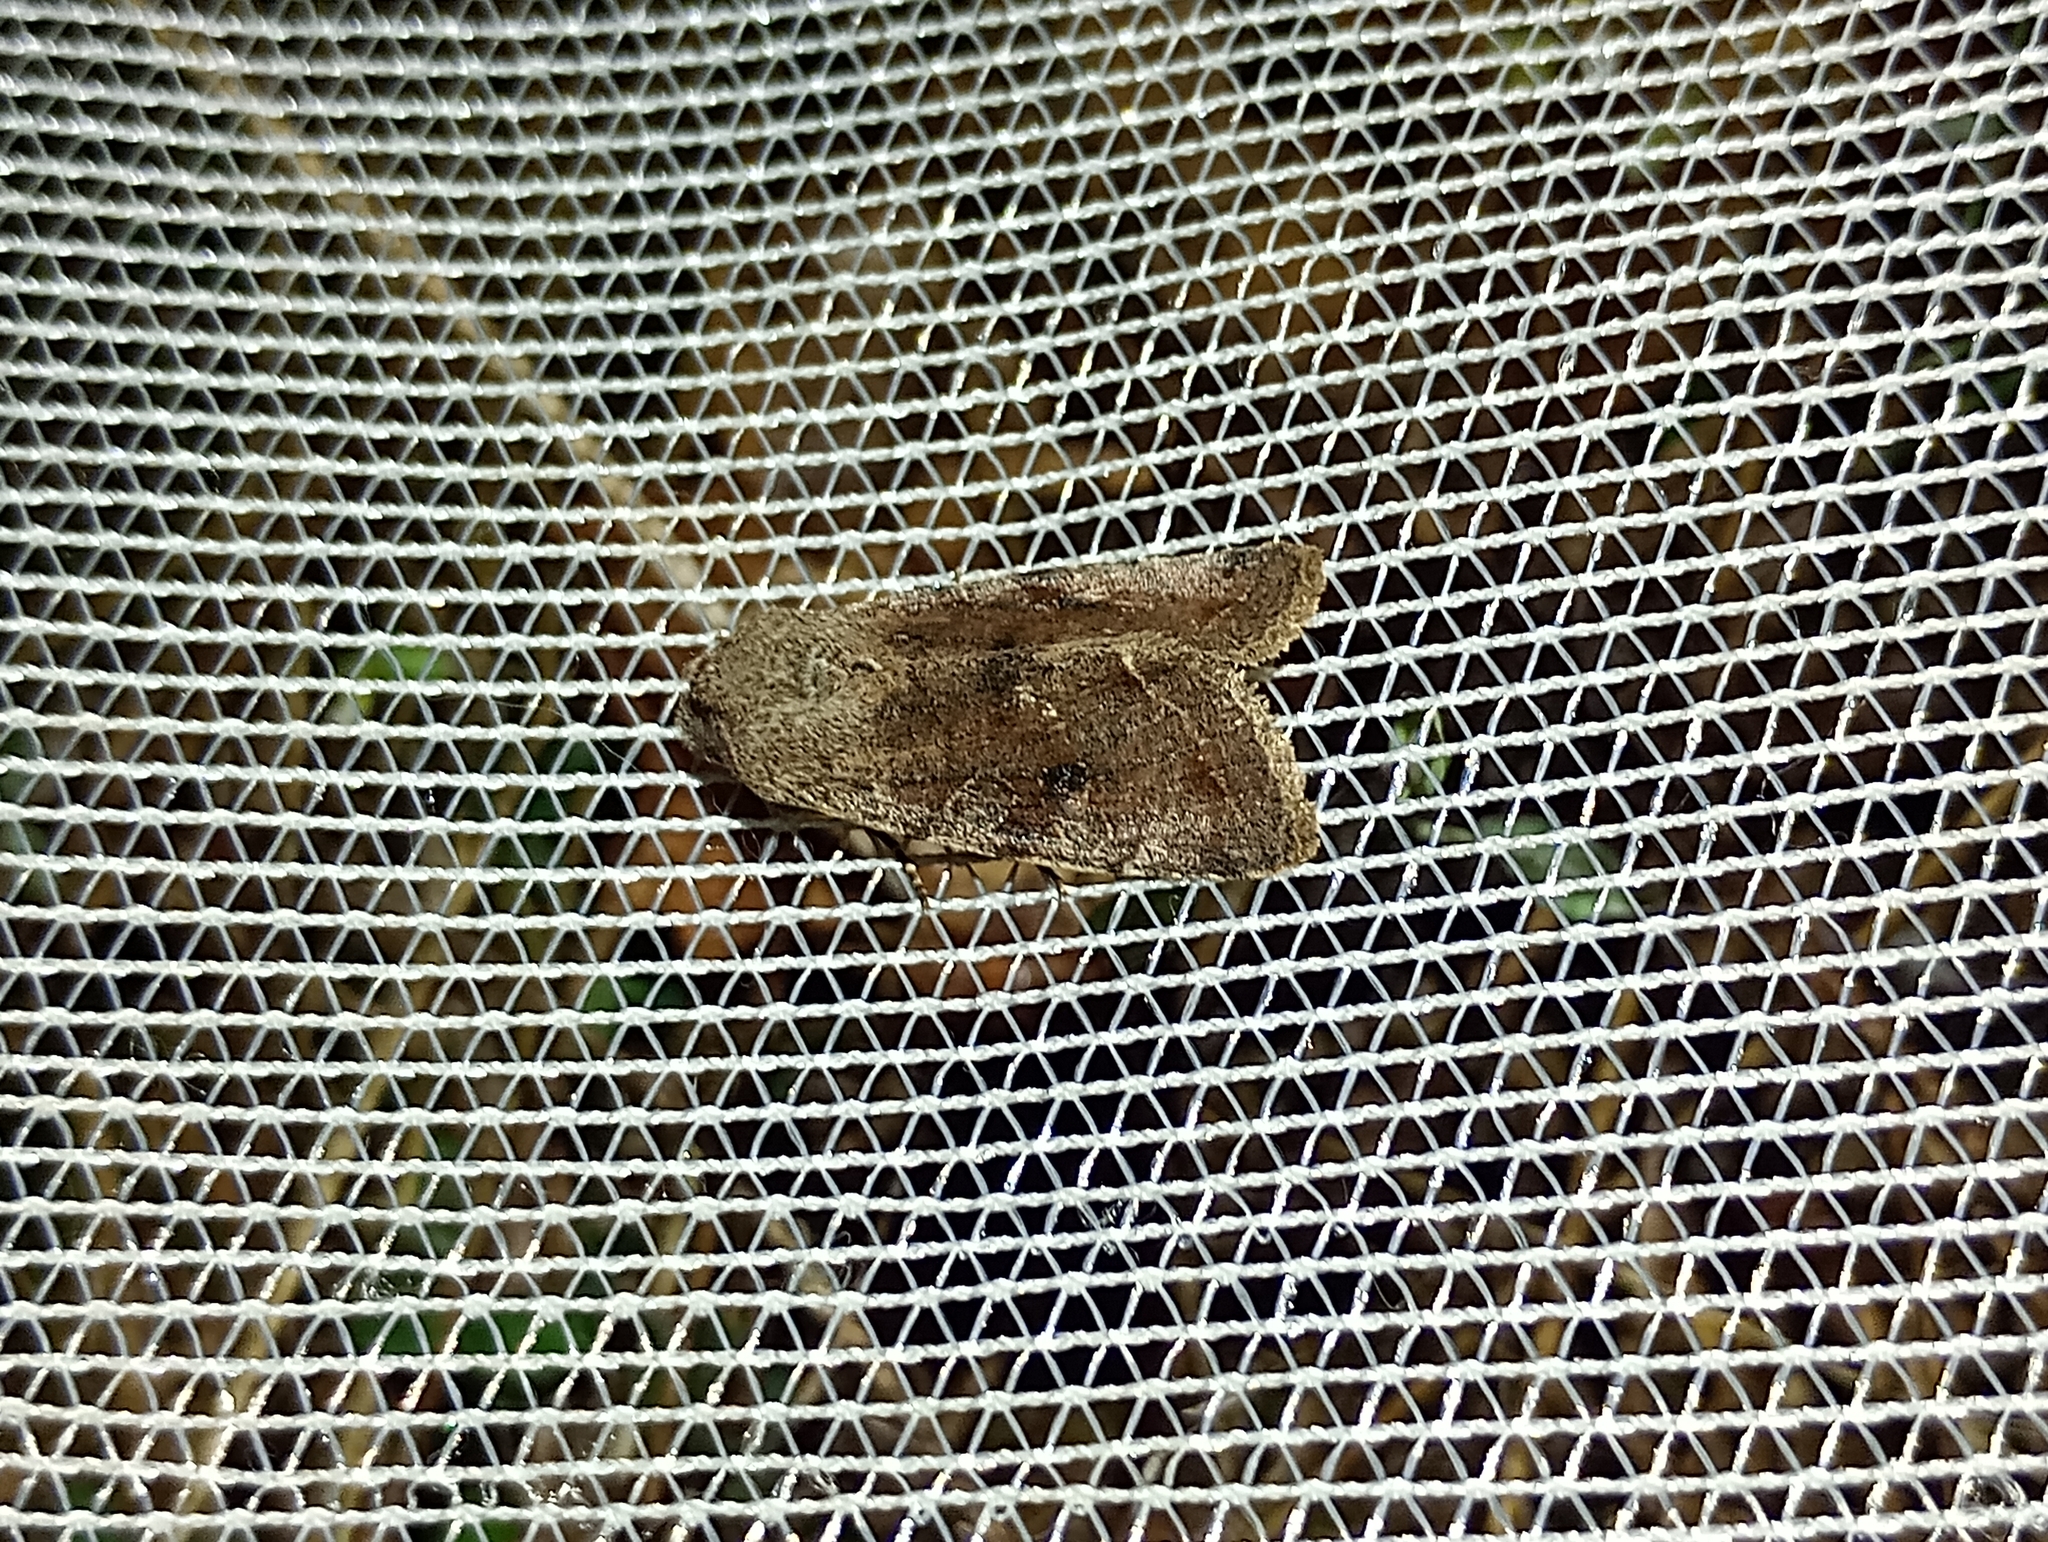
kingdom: Animalia
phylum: Arthropoda
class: Insecta
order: Lepidoptera
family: Noctuidae
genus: Orthosia
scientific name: Orthosia incerta
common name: Clouded drab
